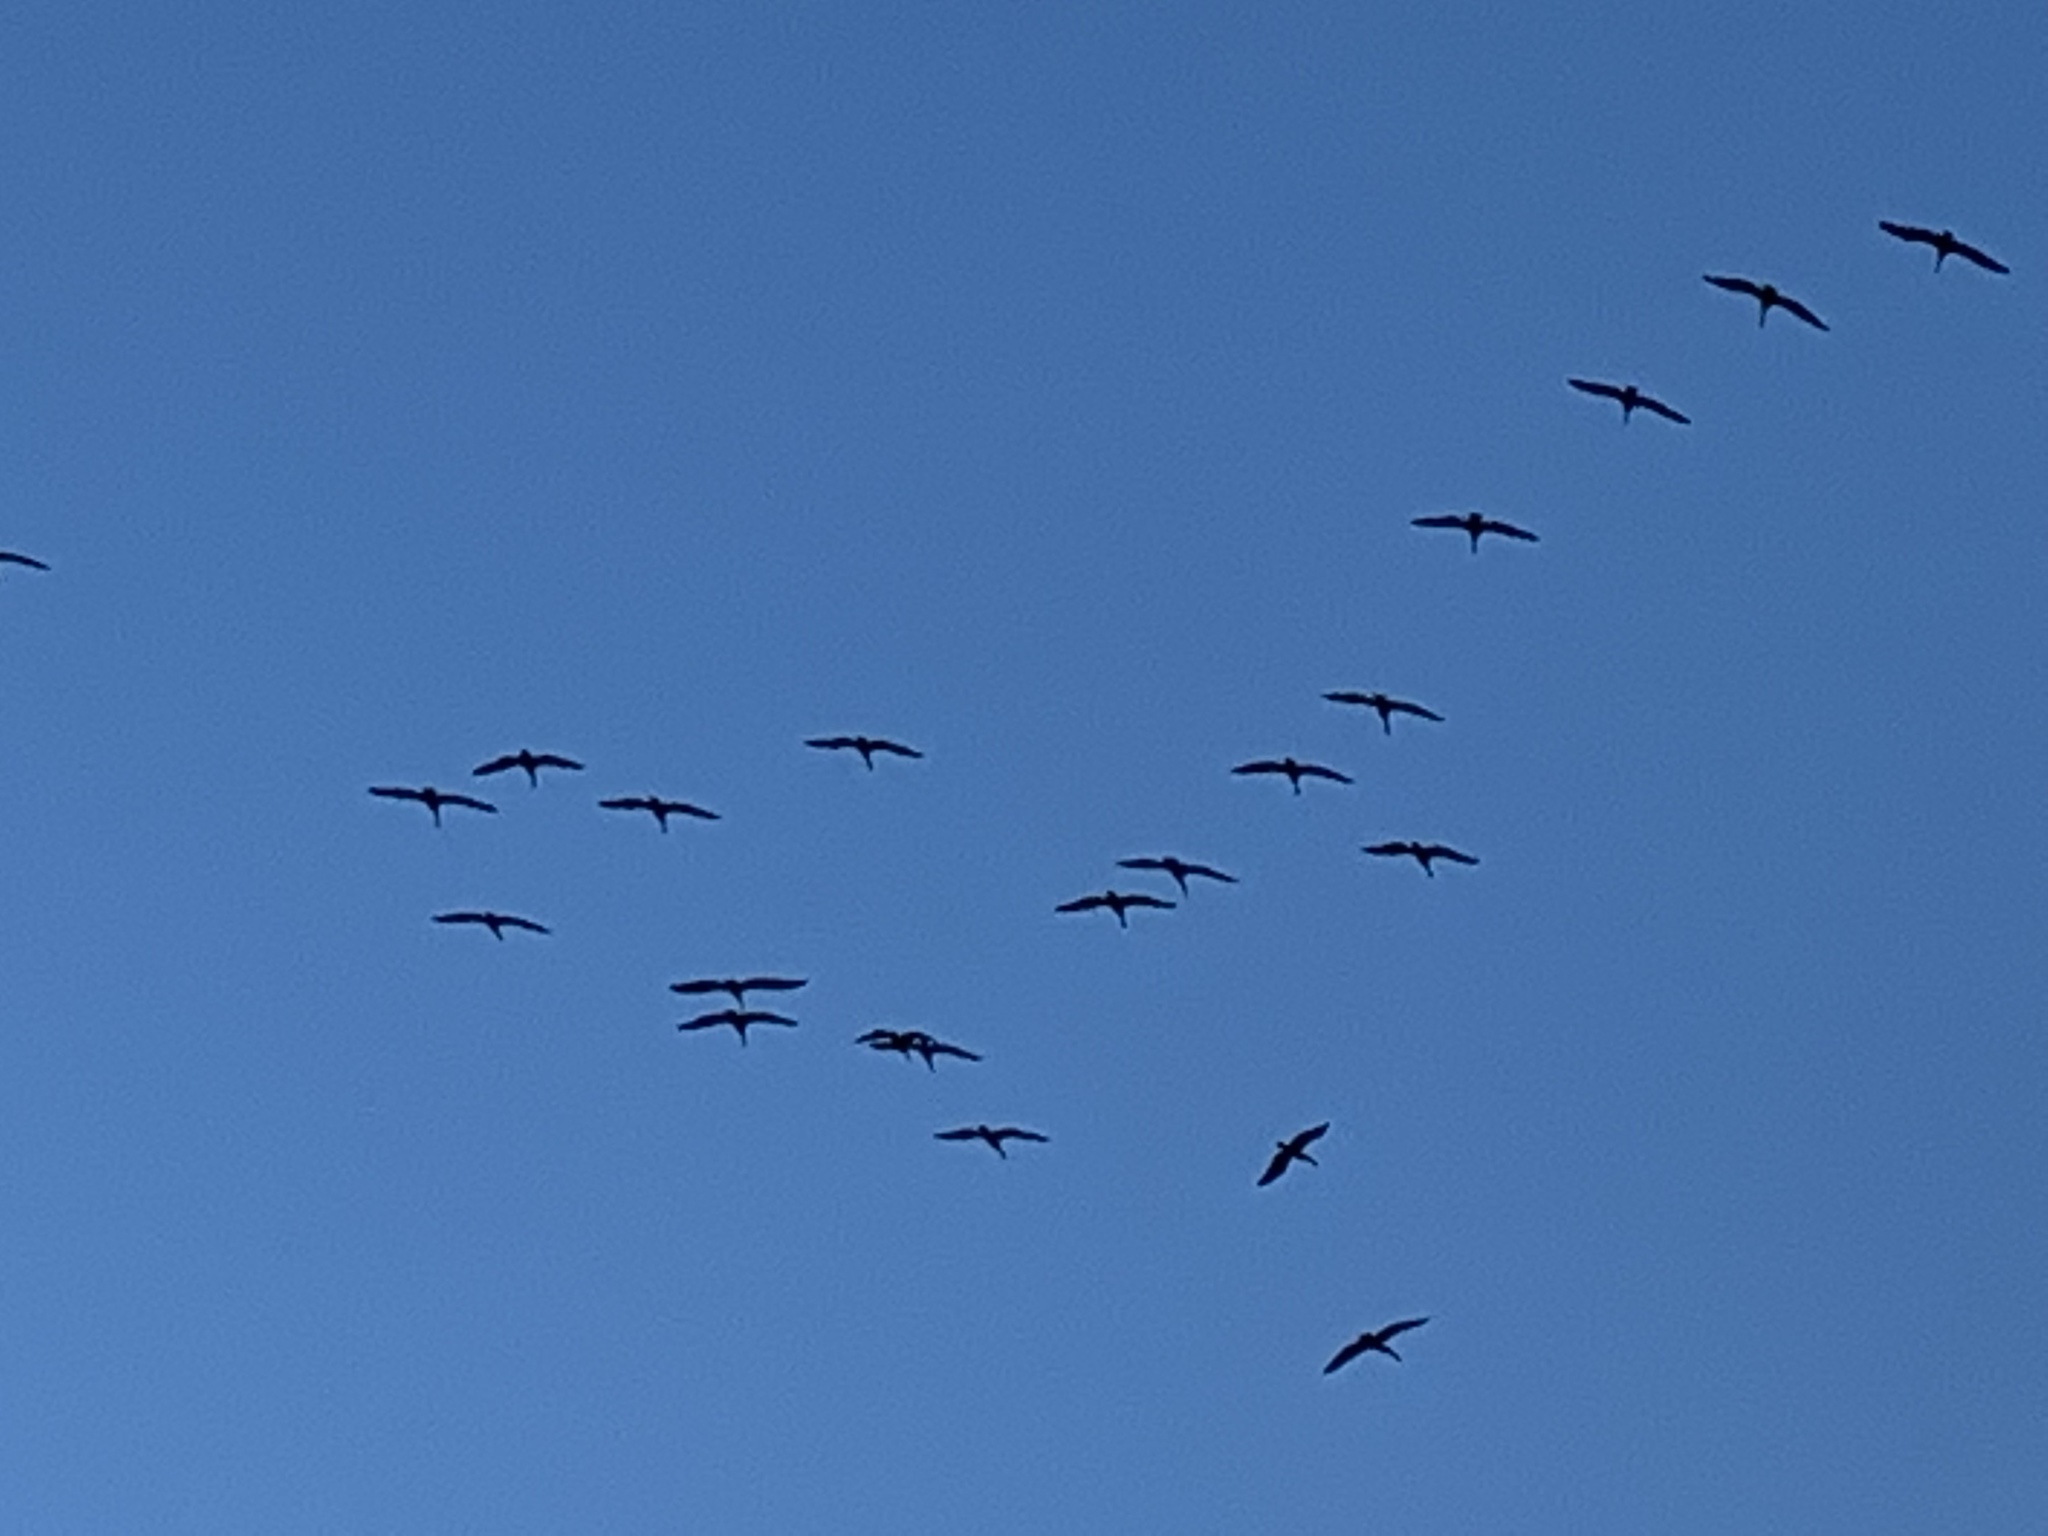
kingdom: Animalia
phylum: Chordata
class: Aves
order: Pelecaniformes
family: Pelecanidae
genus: Pelecanus
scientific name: Pelecanus occidentalis
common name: Brown pelican
